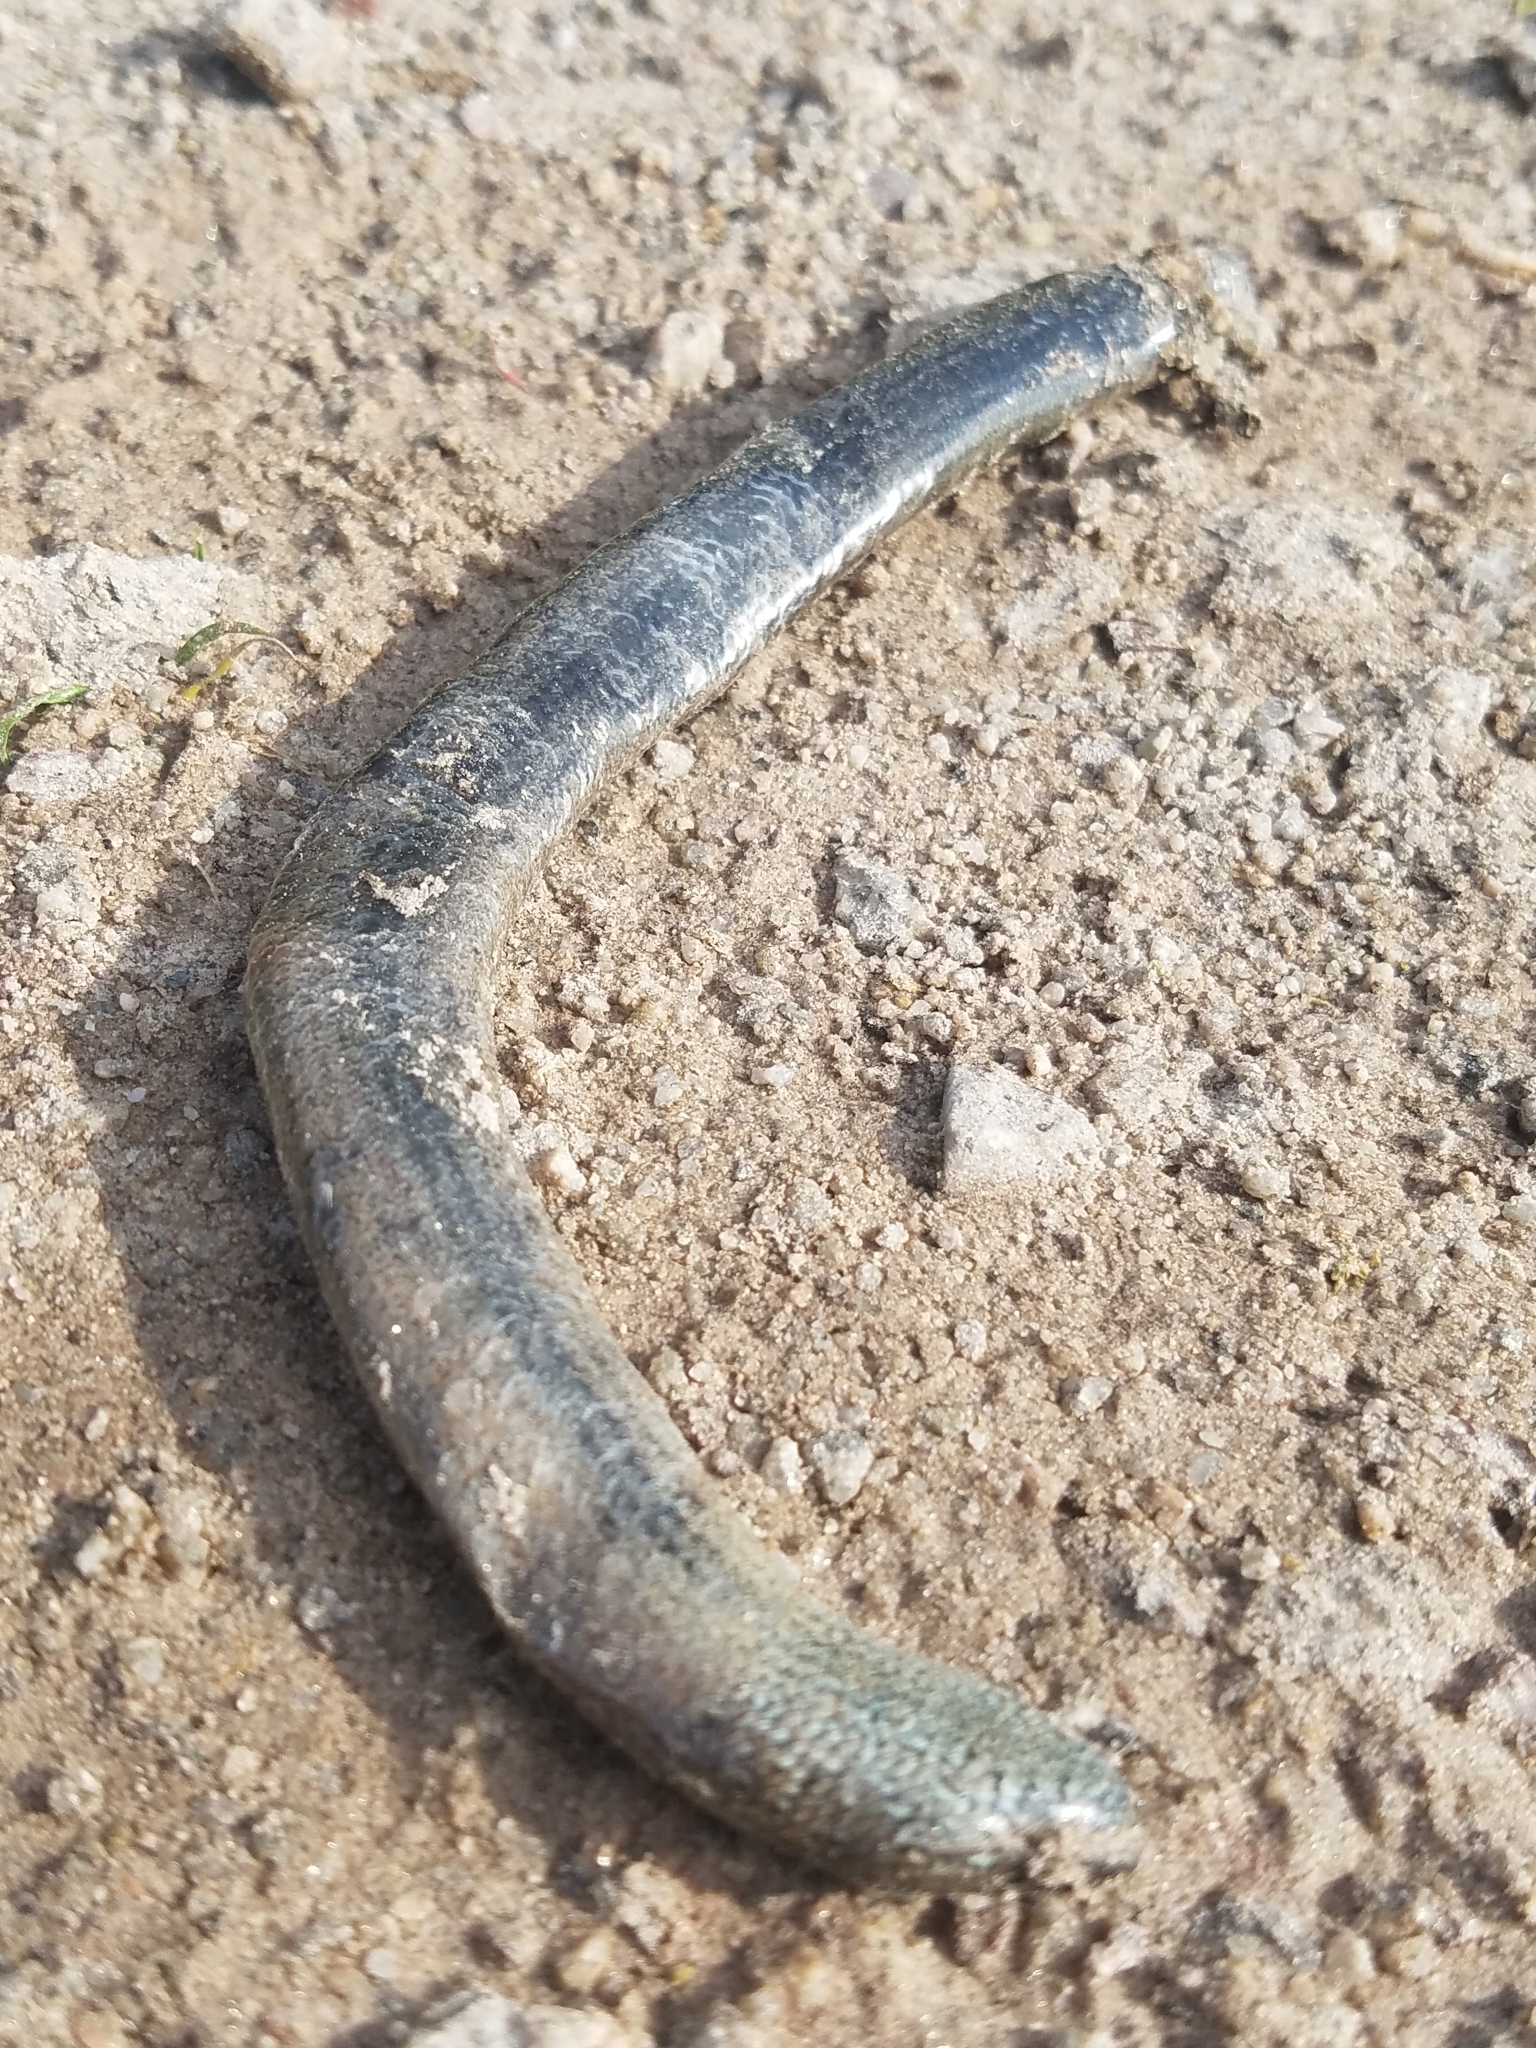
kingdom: Animalia
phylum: Chordata
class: Squamata
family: Anguidae
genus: Anguis
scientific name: Anguis fragilis
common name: Slow worm
